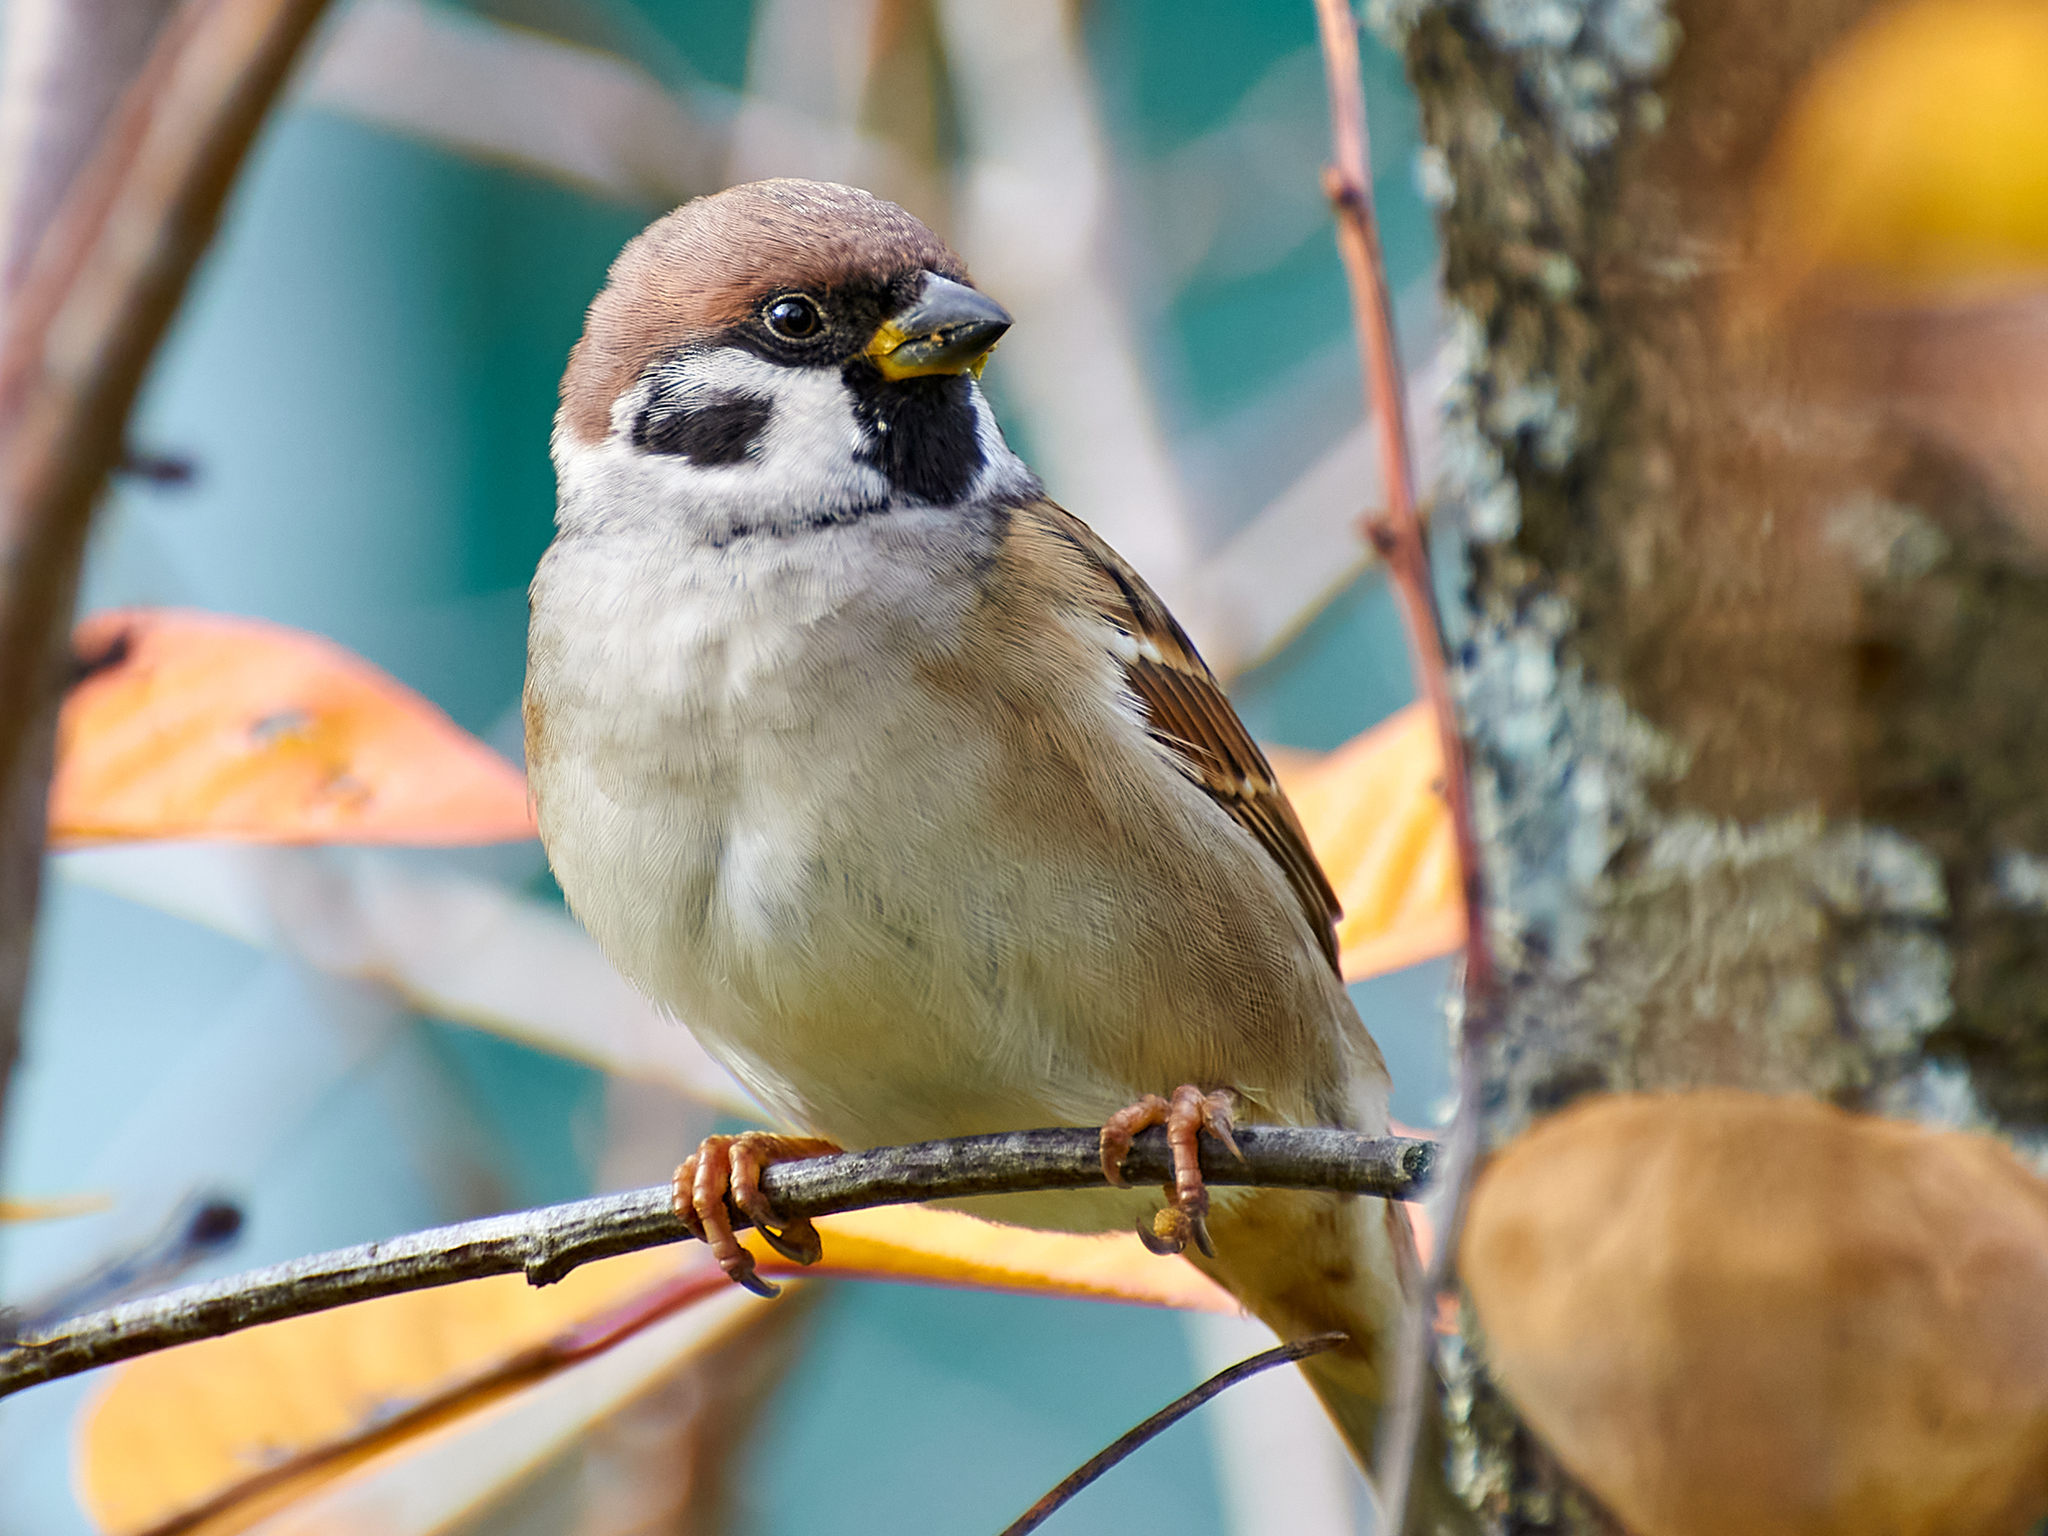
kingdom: Animalia
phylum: Chordata
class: Aves
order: Passeriformes
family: Passeridae
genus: Passer
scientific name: Passer montanus
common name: Eurasian tree sparrow
